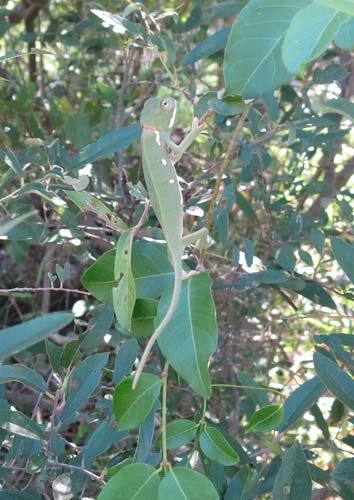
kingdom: Animalia
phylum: Chordata
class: Squamata
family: Chamaeleonidae
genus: Chamaeleo
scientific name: Chamaeleo dilepis
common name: Flapneck chameleon
